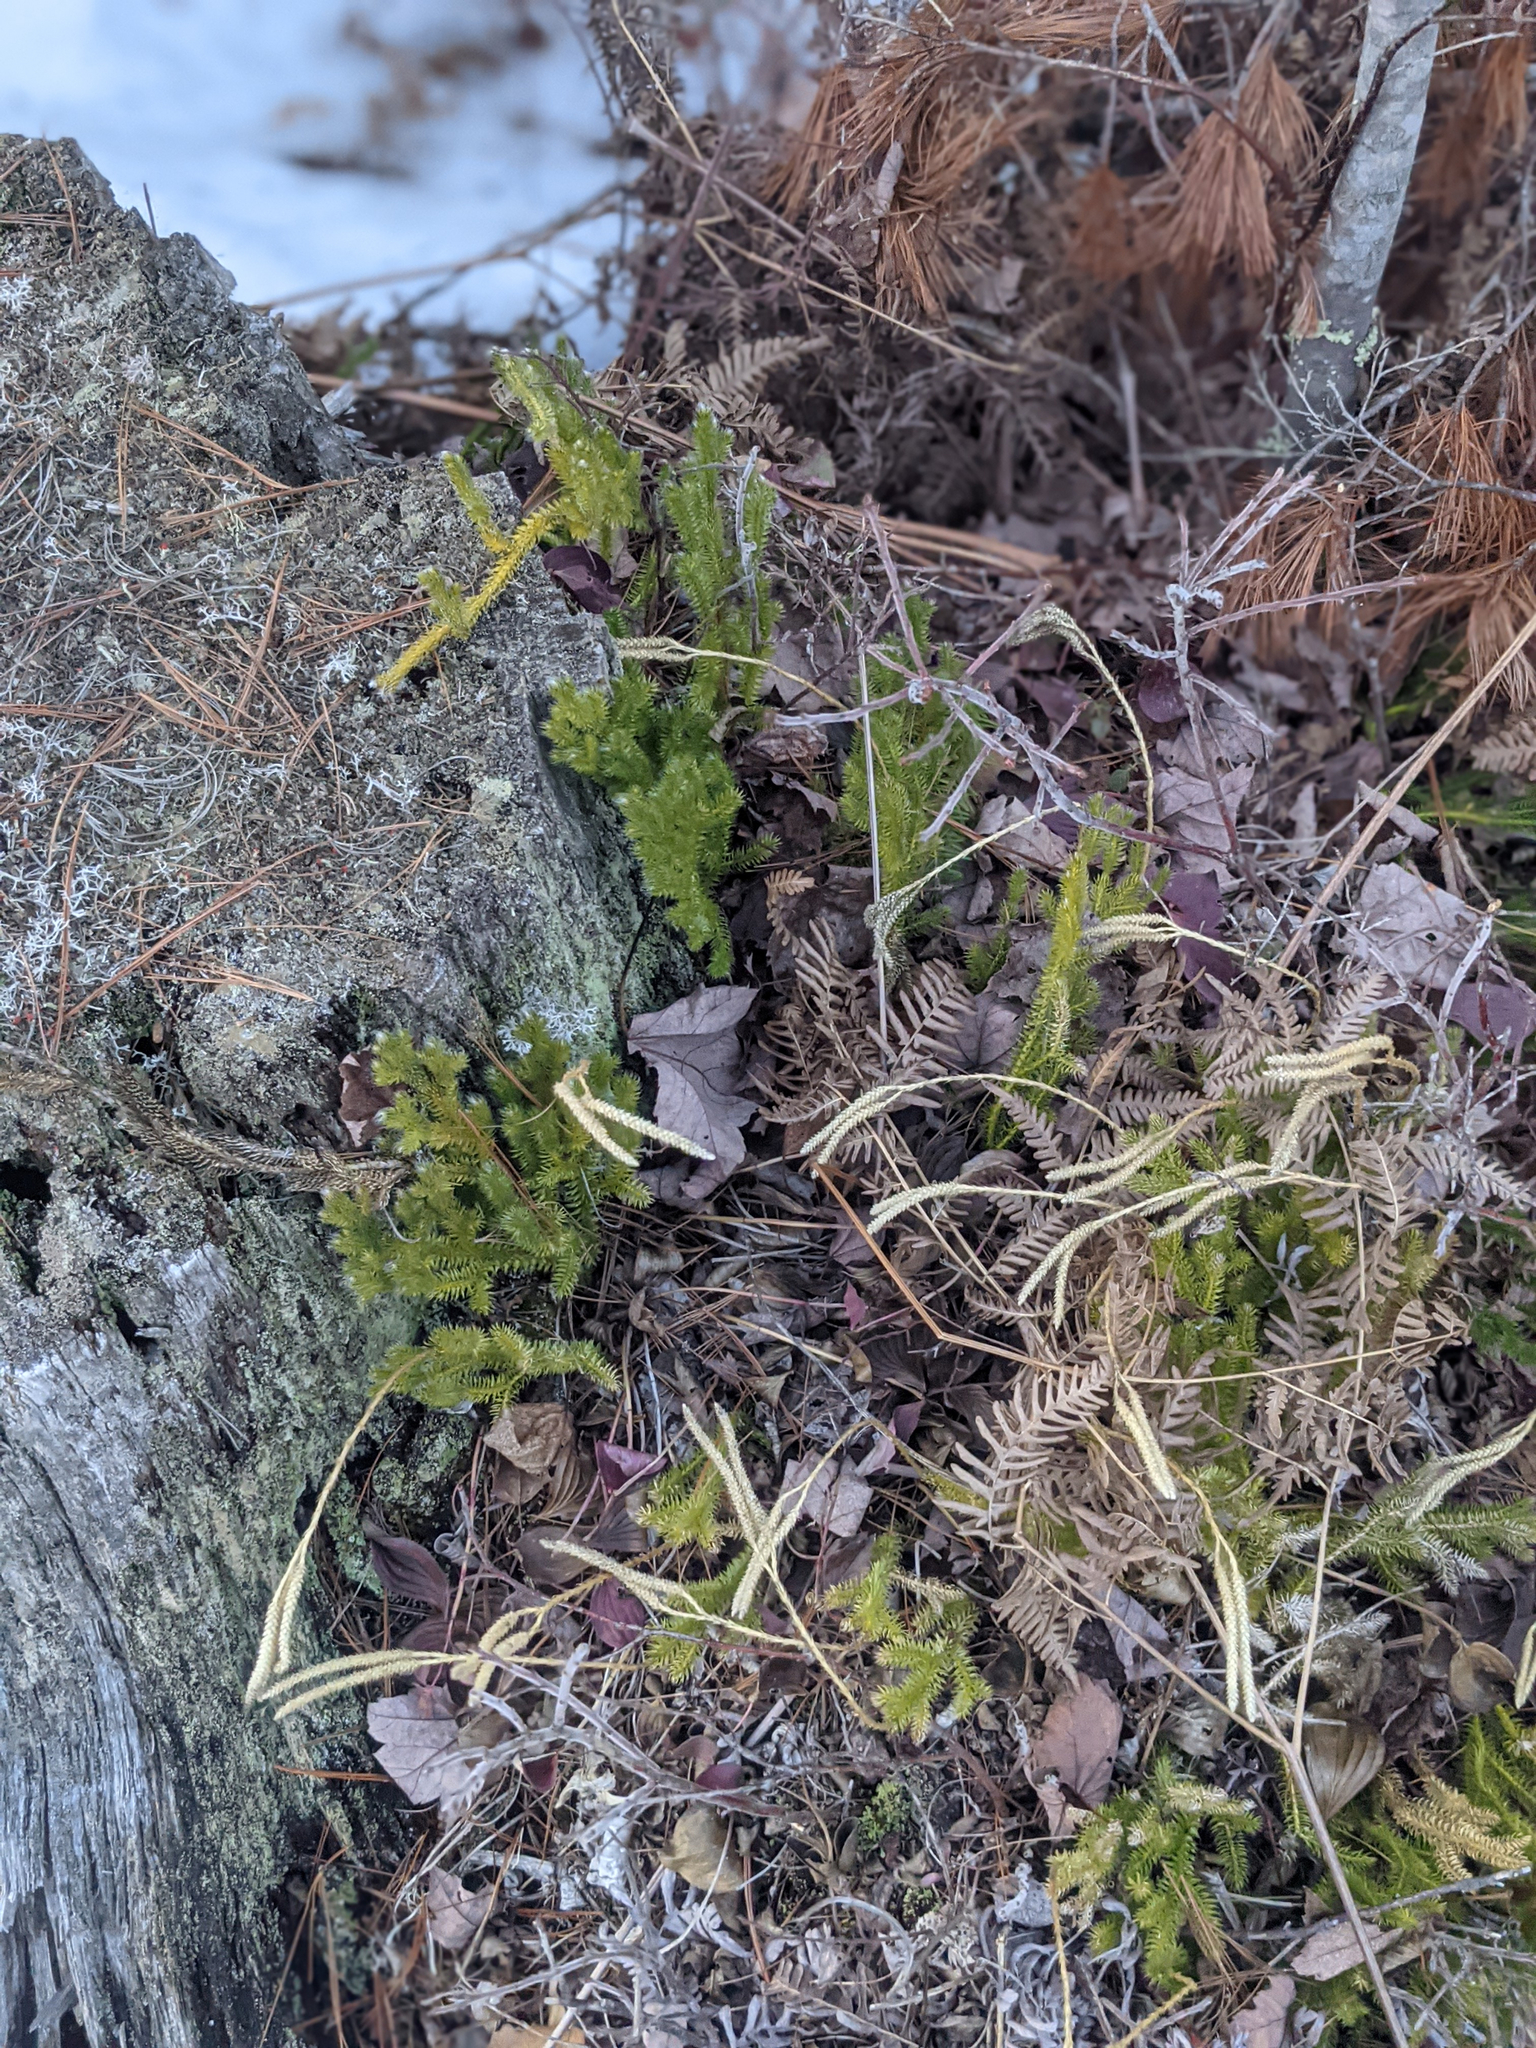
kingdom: Plantae
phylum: Tracheophyta
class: Lycopodiopsida
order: Lycopodiales
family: Lycopodiaceae
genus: Lycopodium
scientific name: Lycopodium clavatum
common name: Stag's-horn clubmoss
